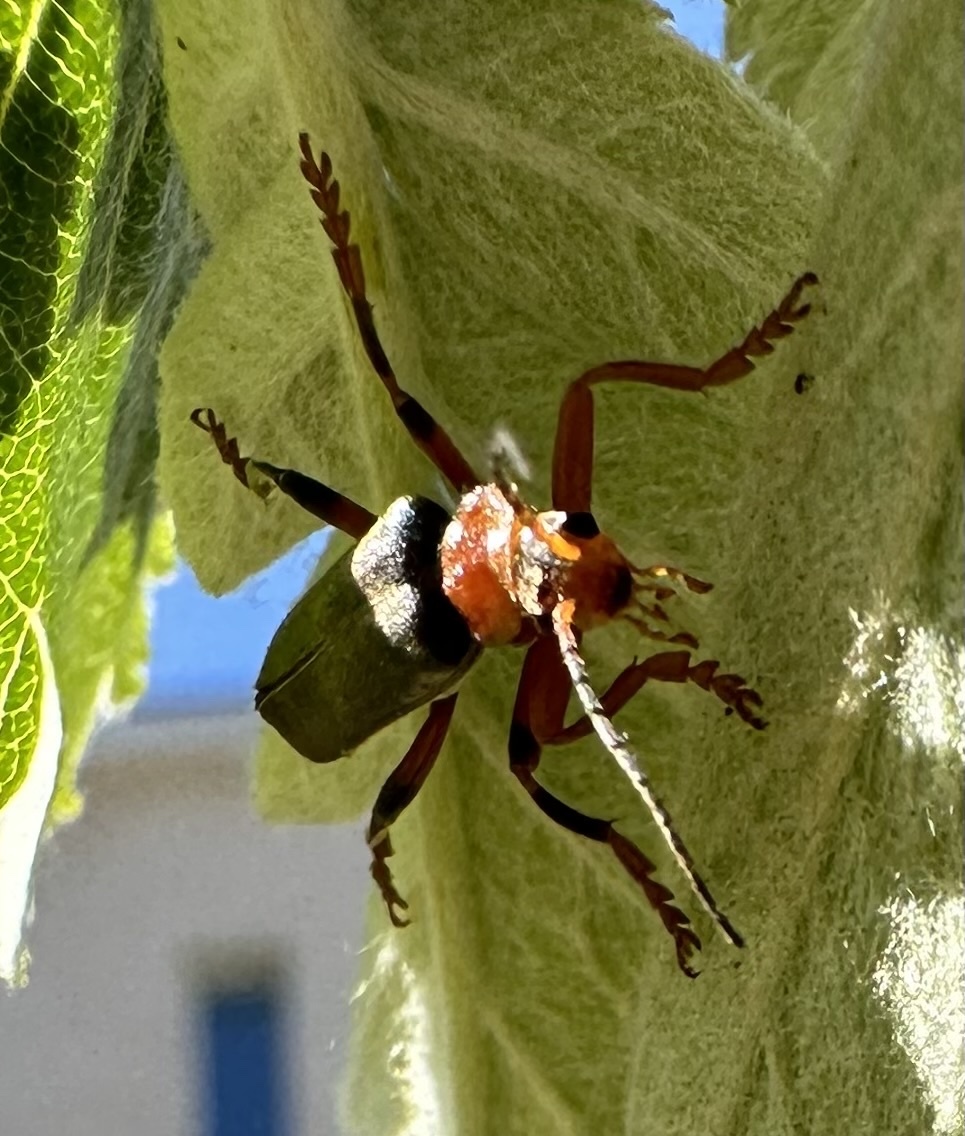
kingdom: Animalia
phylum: Arthropoda
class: Insecta
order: Coleoptera
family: Cantharidae
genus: Cantharis
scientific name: Cantharis livida
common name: Livid soldier beetle
